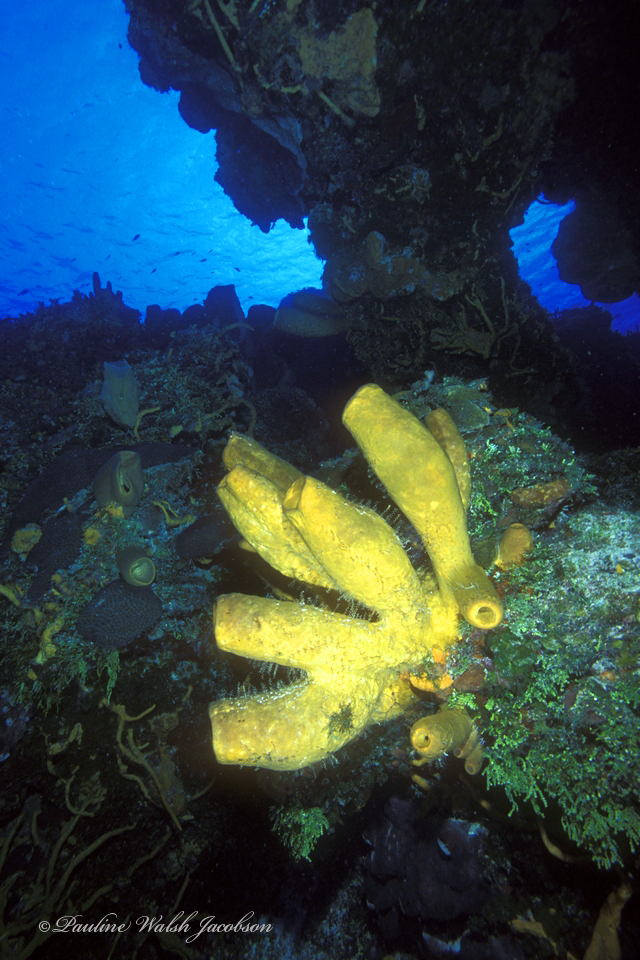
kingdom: Animalia
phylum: Porifera
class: Demospongiae
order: Agelasida
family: Agelasidae
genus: Agelas
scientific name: Agelas tubulata
